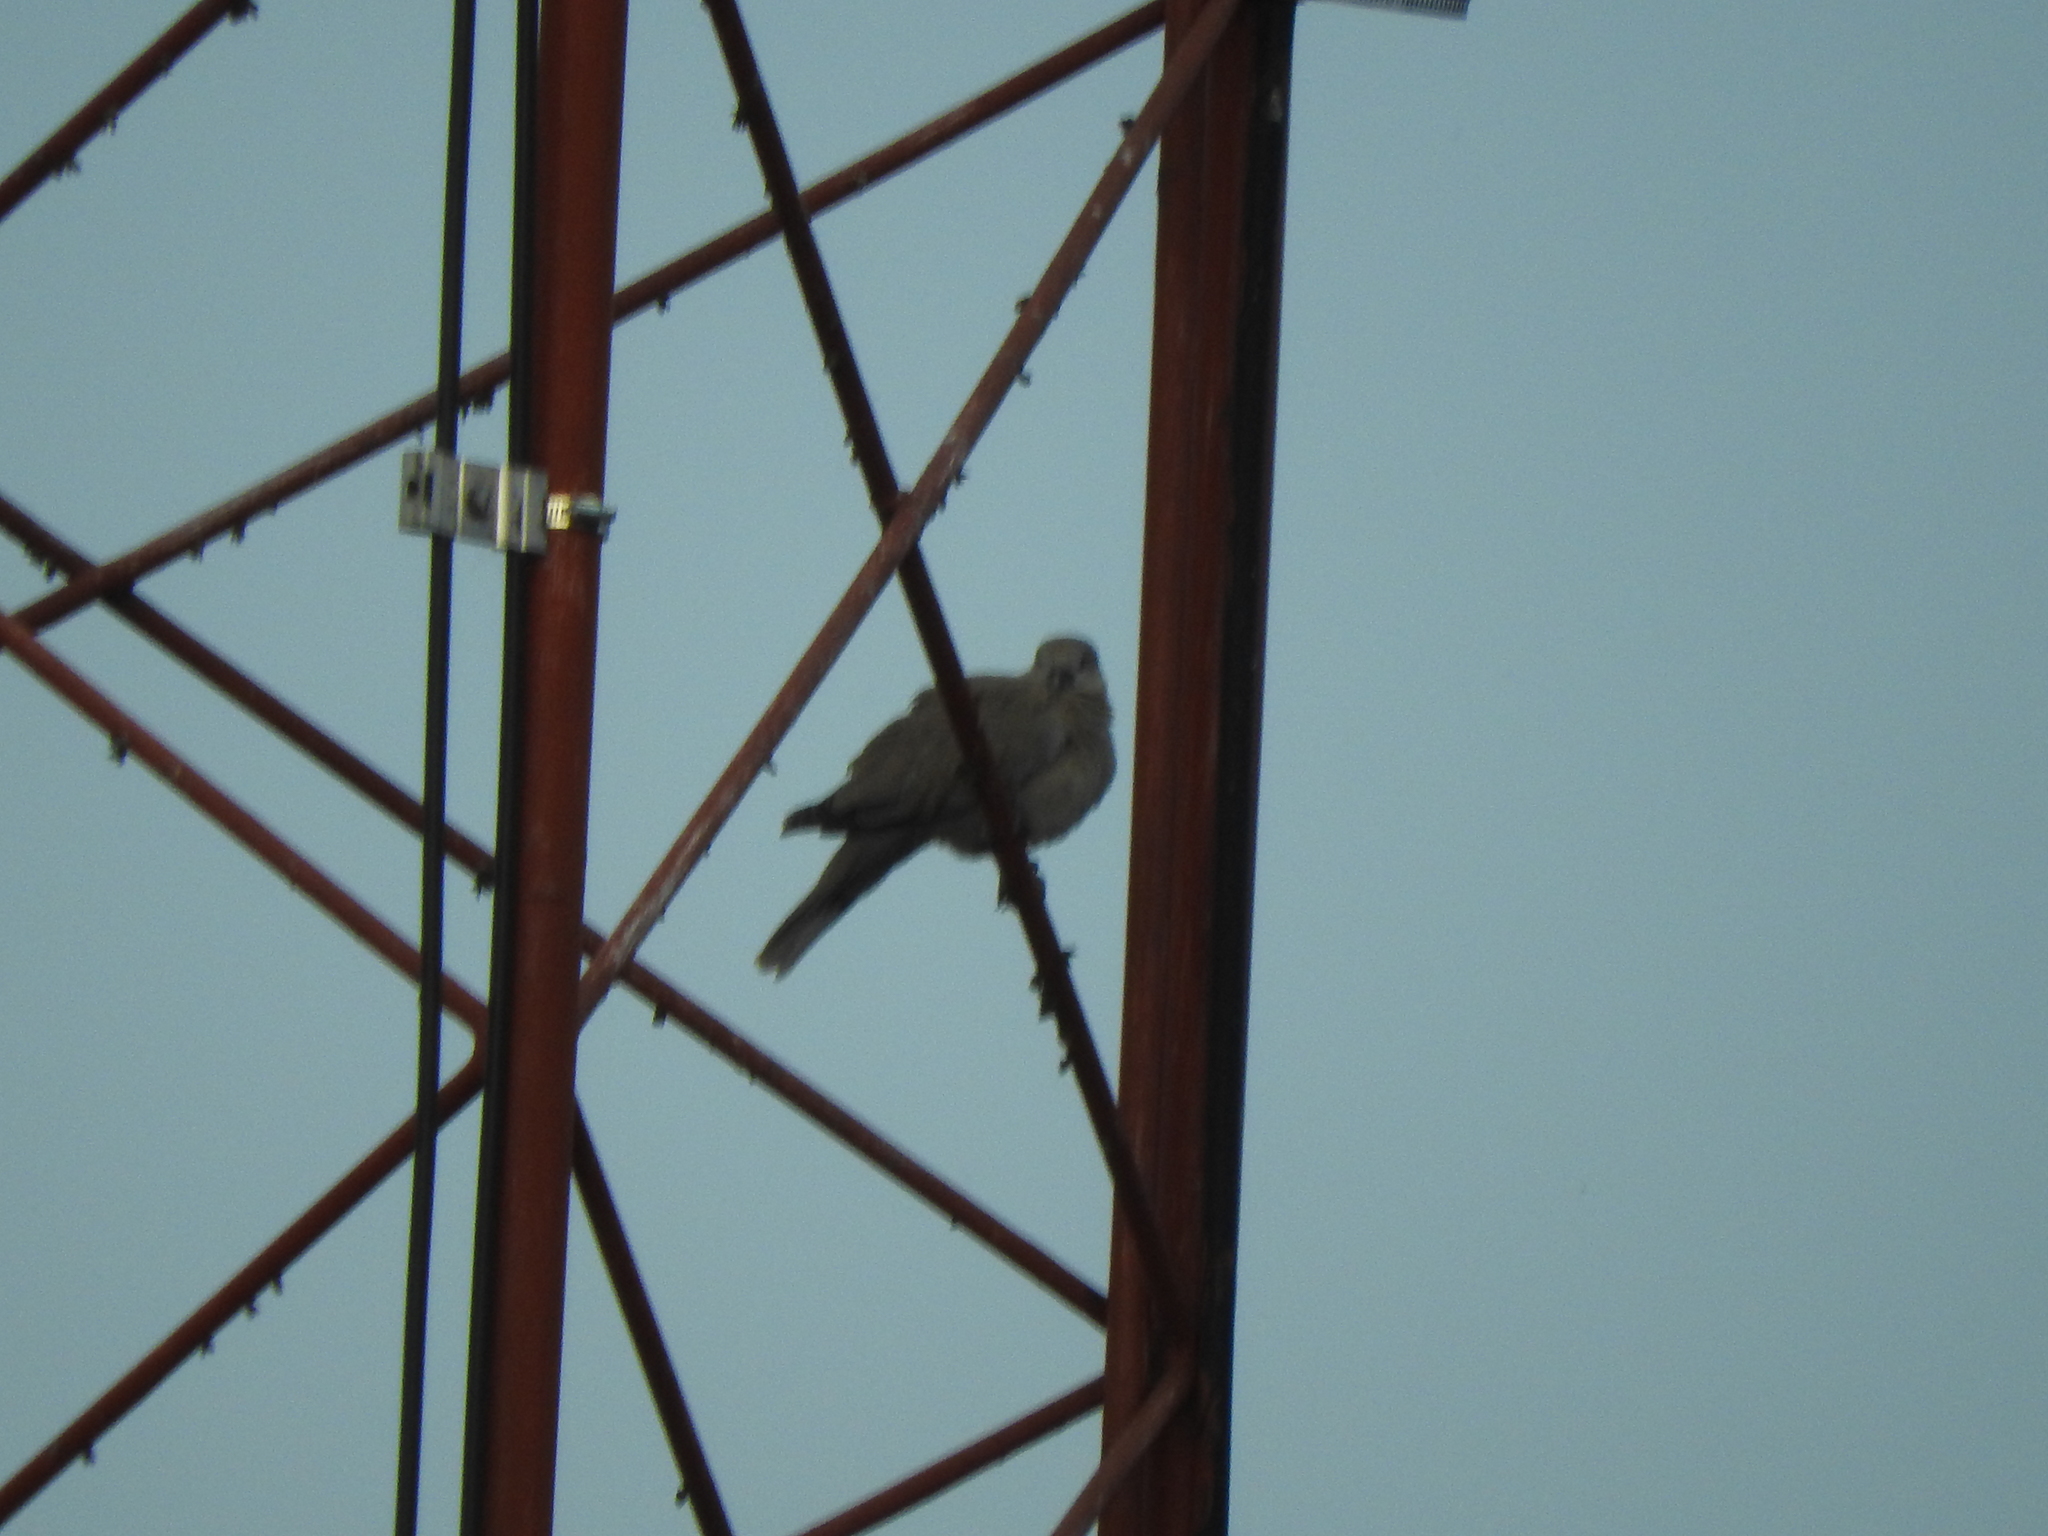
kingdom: Animalia
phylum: Chordata
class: Aves
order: Columbiformes
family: Columbidae
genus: Streptopelia
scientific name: Streptopelia decaocto
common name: Eurasian collared dove
